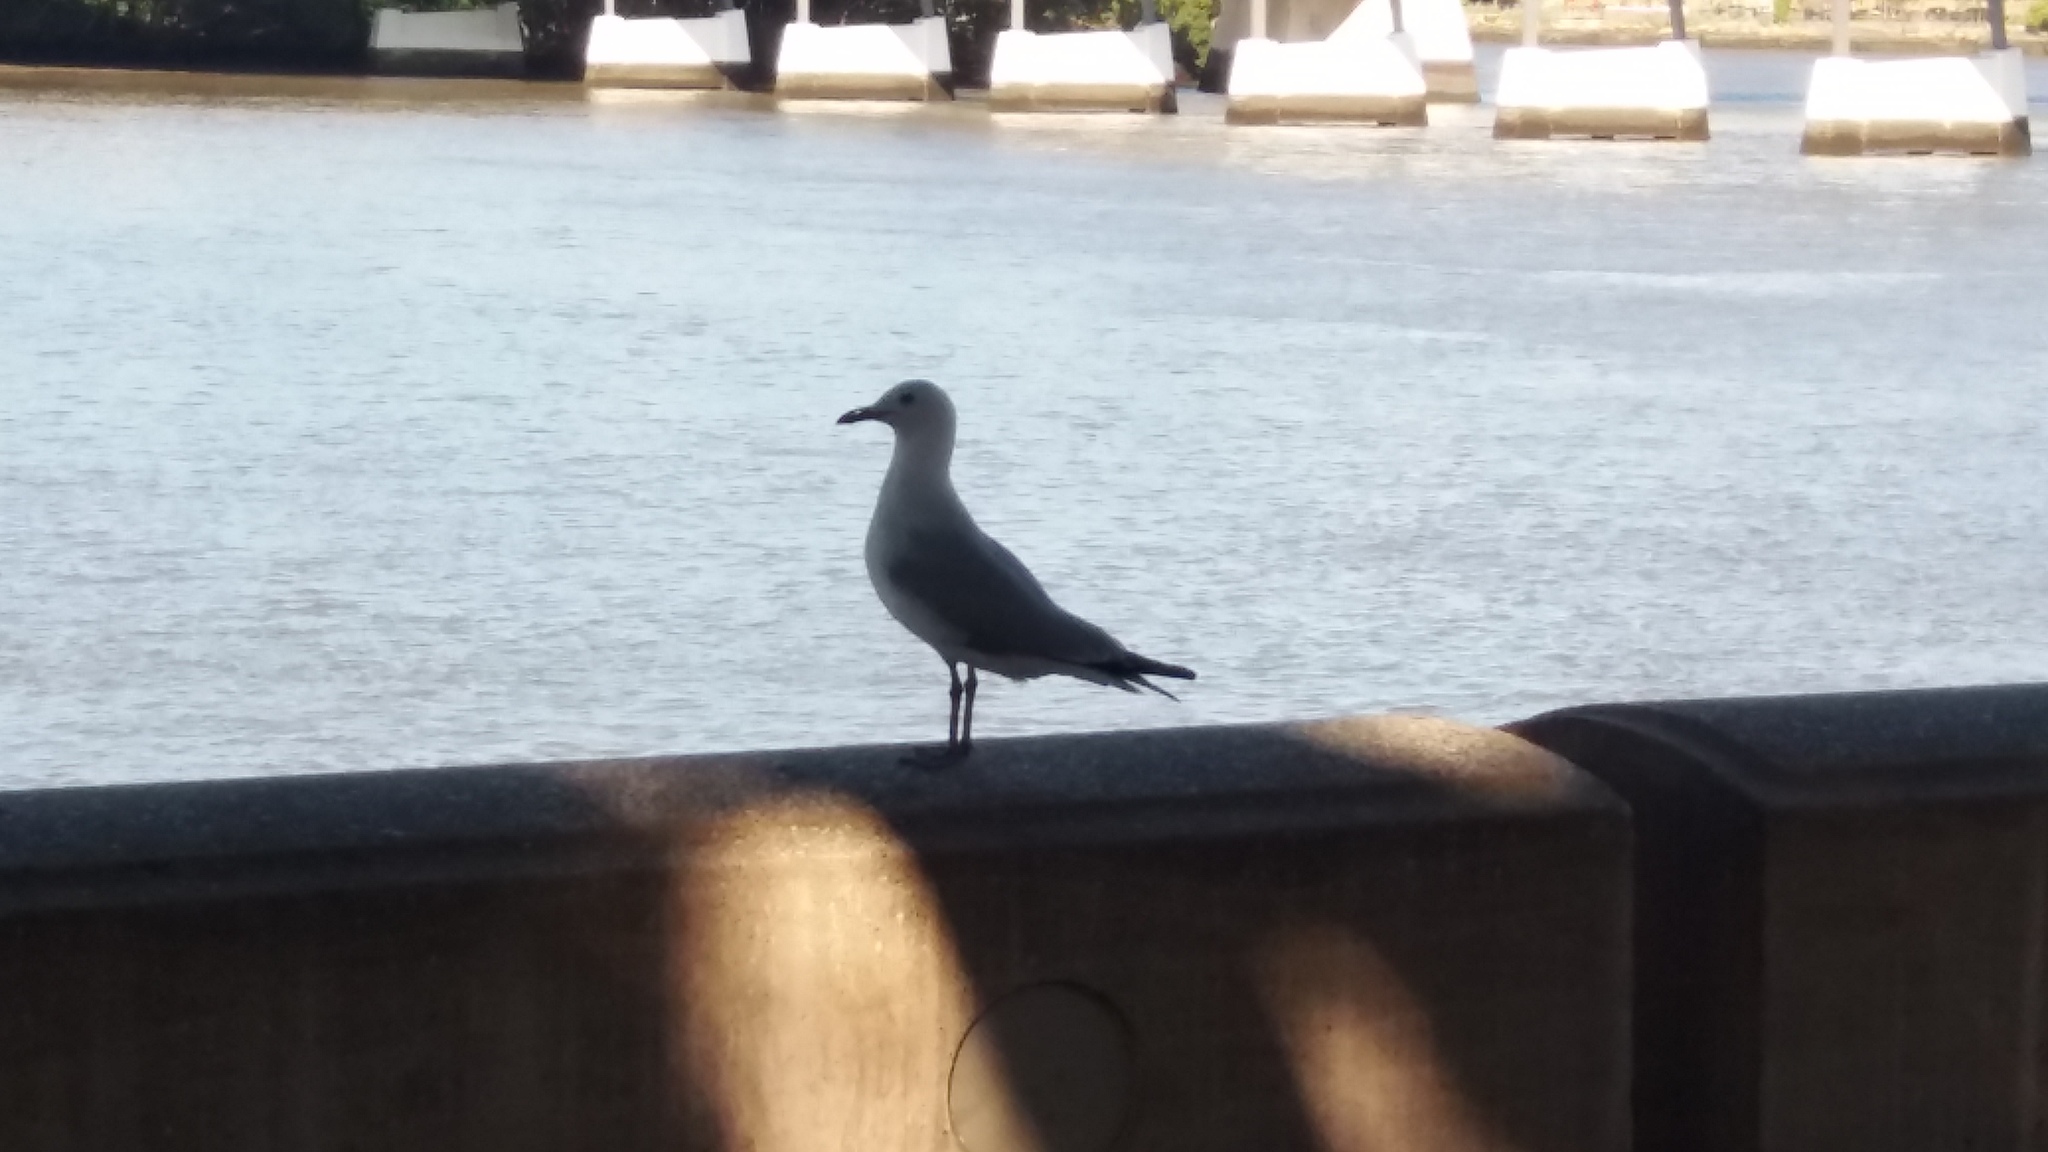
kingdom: Animalia
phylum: Chordata
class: Aves
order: Charadriiformes
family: Laridae
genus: Chroicocephalus
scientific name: Chroicocephalus novaehollandiae
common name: Silver gull
